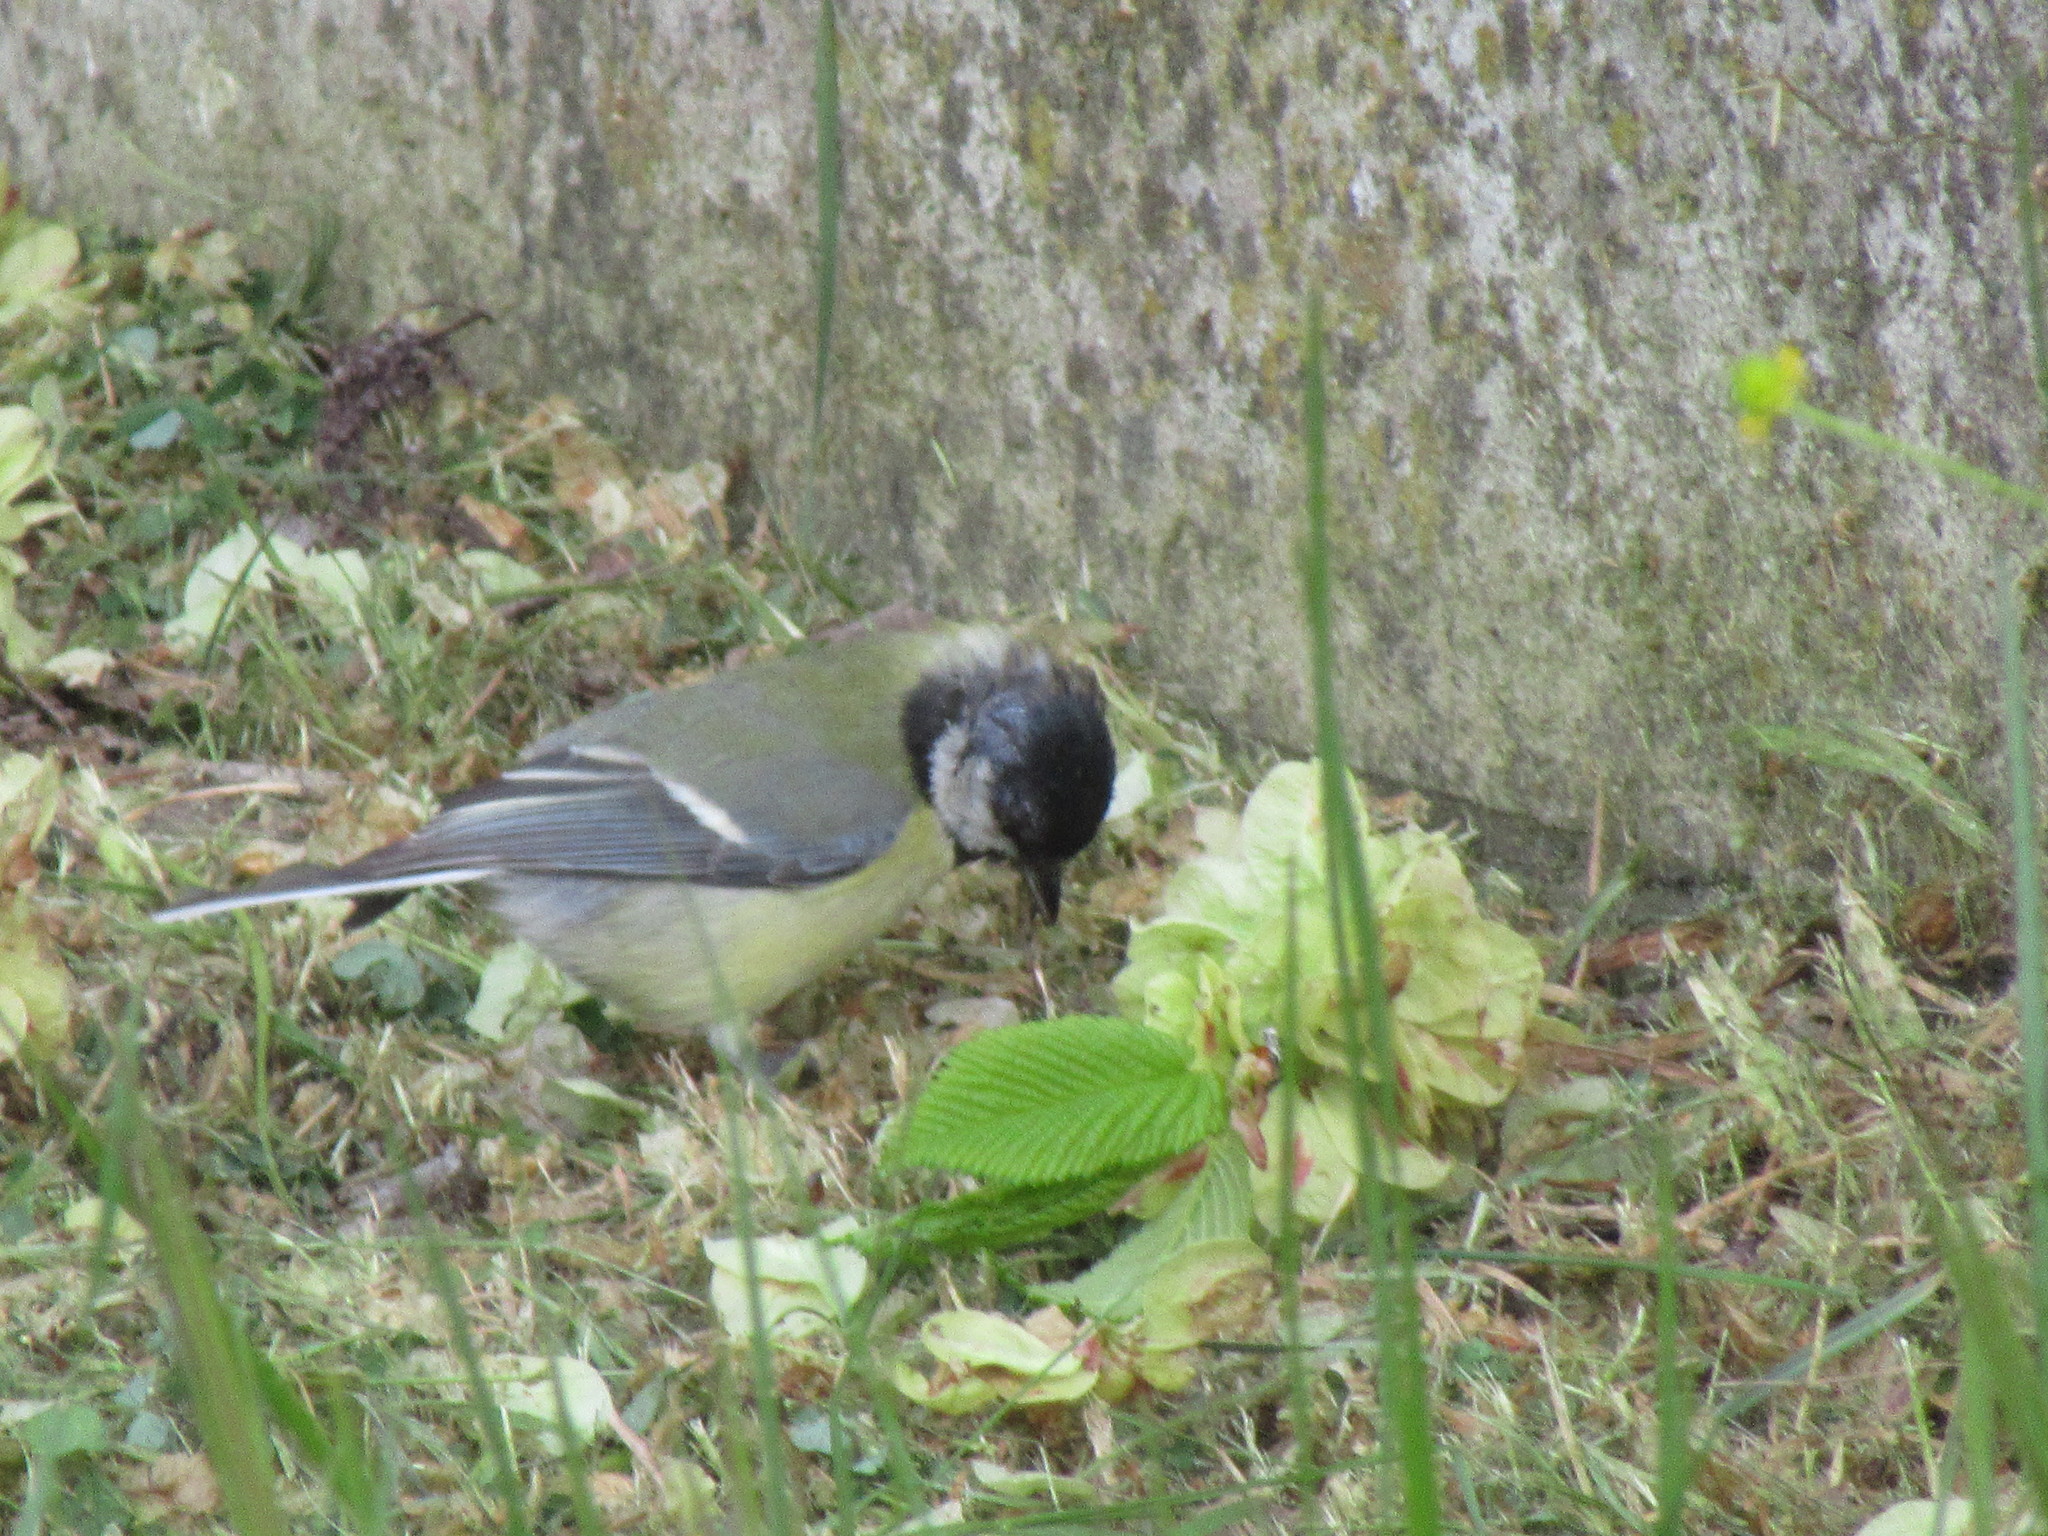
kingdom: Animalia
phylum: Chordata
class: Aves
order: Passeriformes
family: Paridae
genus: Parus
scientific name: Parus major
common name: Great tit
